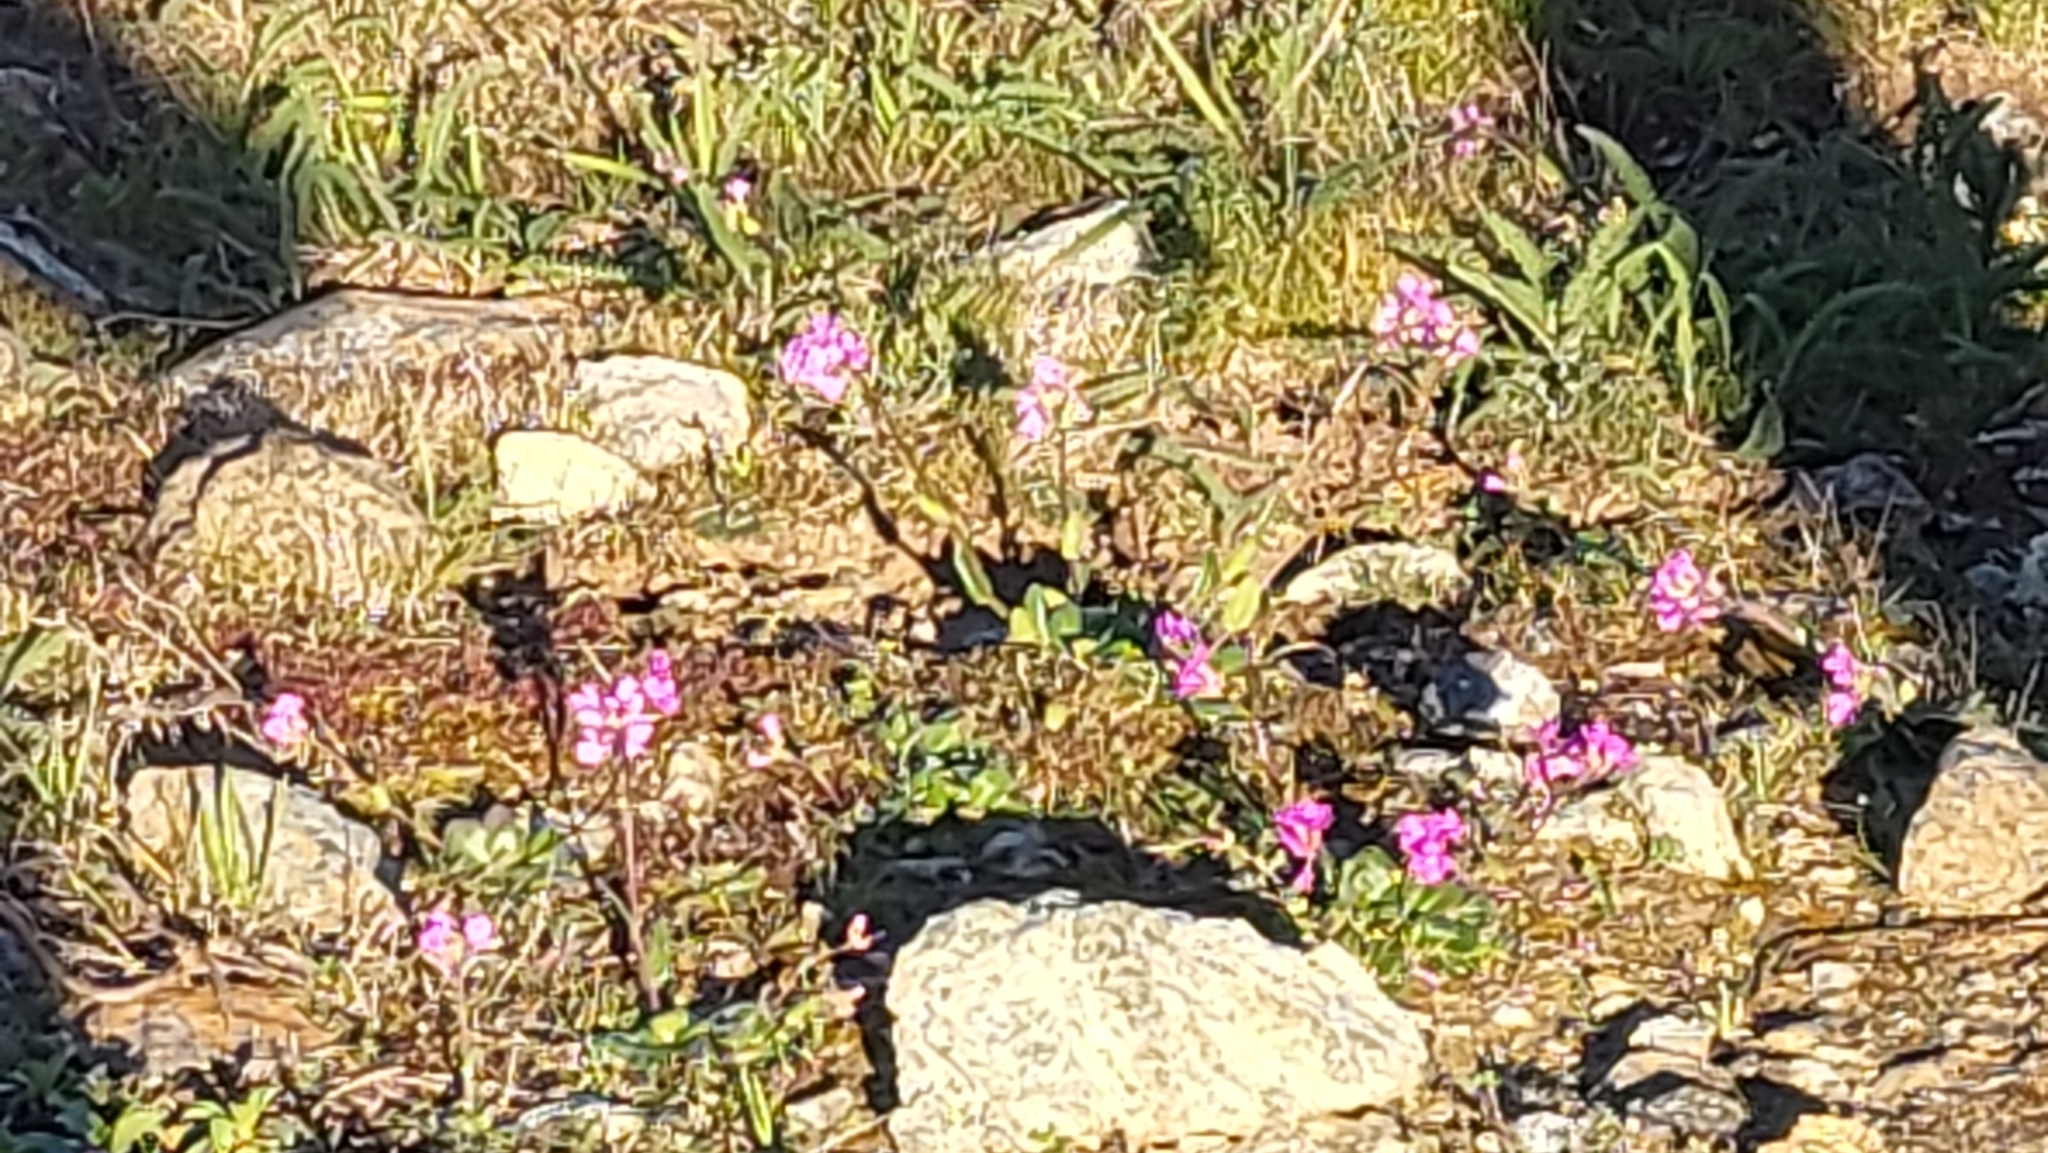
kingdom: Plantae
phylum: Tracheophyta
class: Magnoliopsida
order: Brassicales
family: Brassicaceae
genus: Arabis
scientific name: Arabis blepharophylla
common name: Rose rockcress
